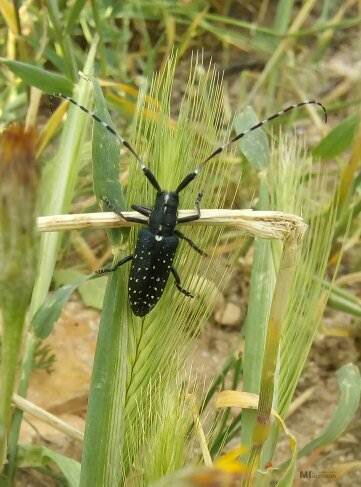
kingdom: Animalia
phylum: Arthropoda
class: Insecta
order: Coleoptera
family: Cerambycidae
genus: Agapanthia
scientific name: Agapanthia irrorata
